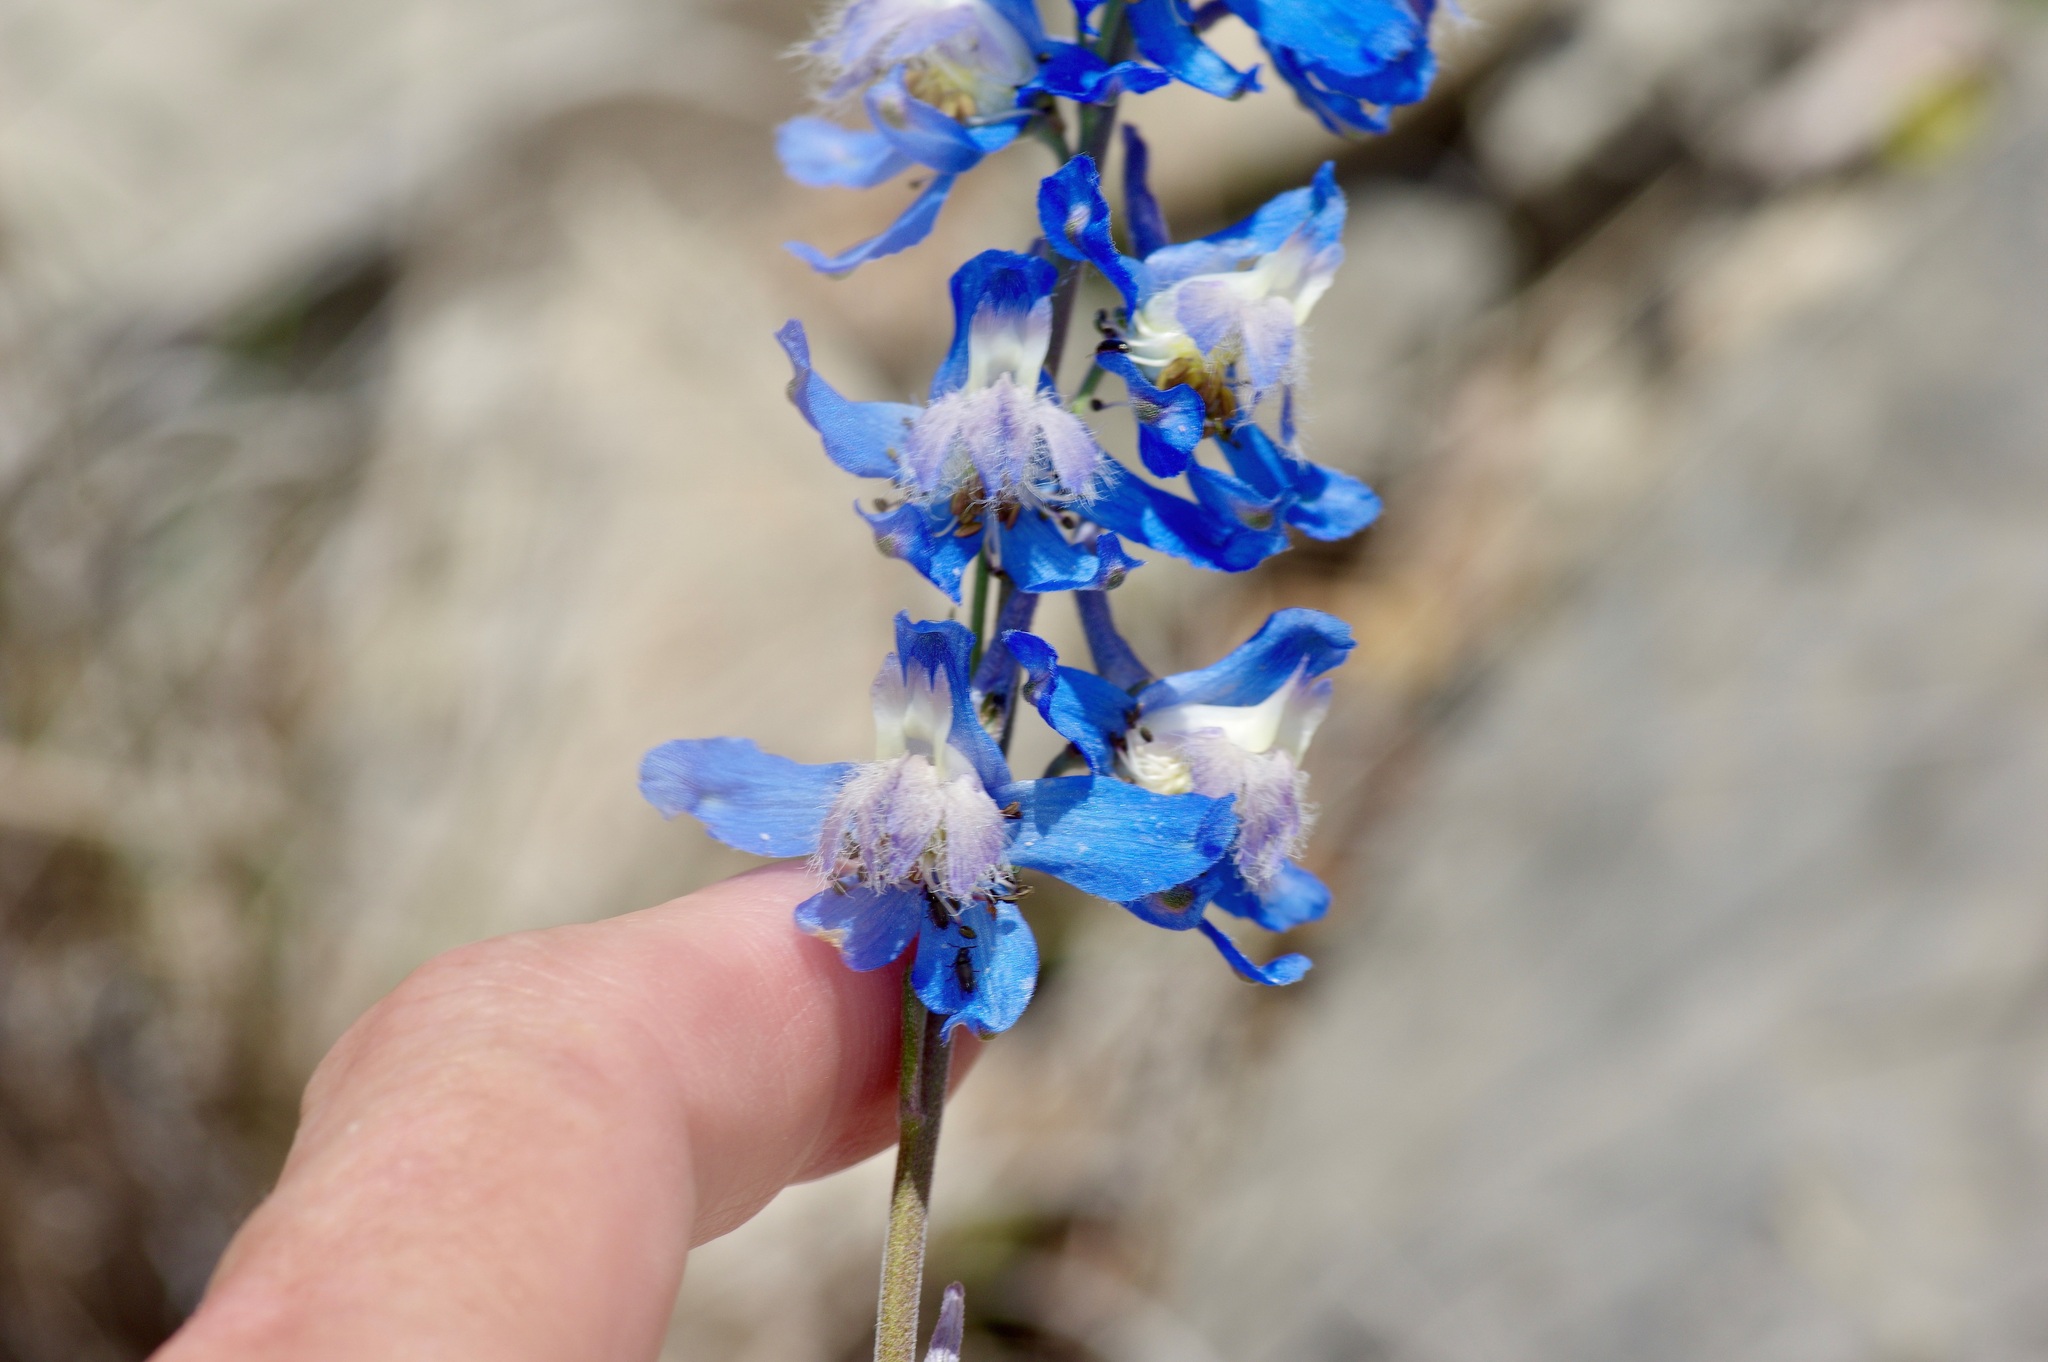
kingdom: Plantae
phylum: Tracheophyta
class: Magnoliopsida
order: Ranunculales
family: Ranunculaceae
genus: Delphinium
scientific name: Delphinium madrense
